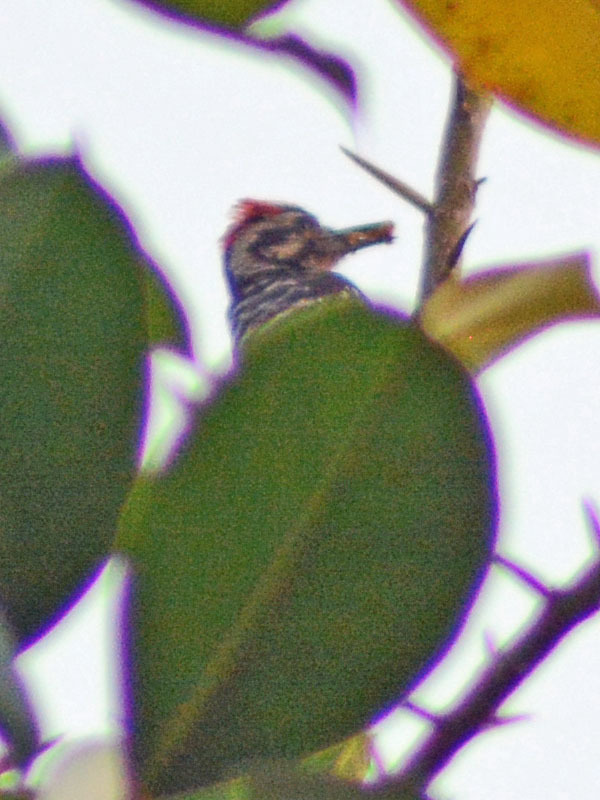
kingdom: Animalia
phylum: Chordata
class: Aves
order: Piciformes
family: Picidae
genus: Dryobates
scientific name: Dryobates scalaris
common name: Ladder-backed woodpecker
